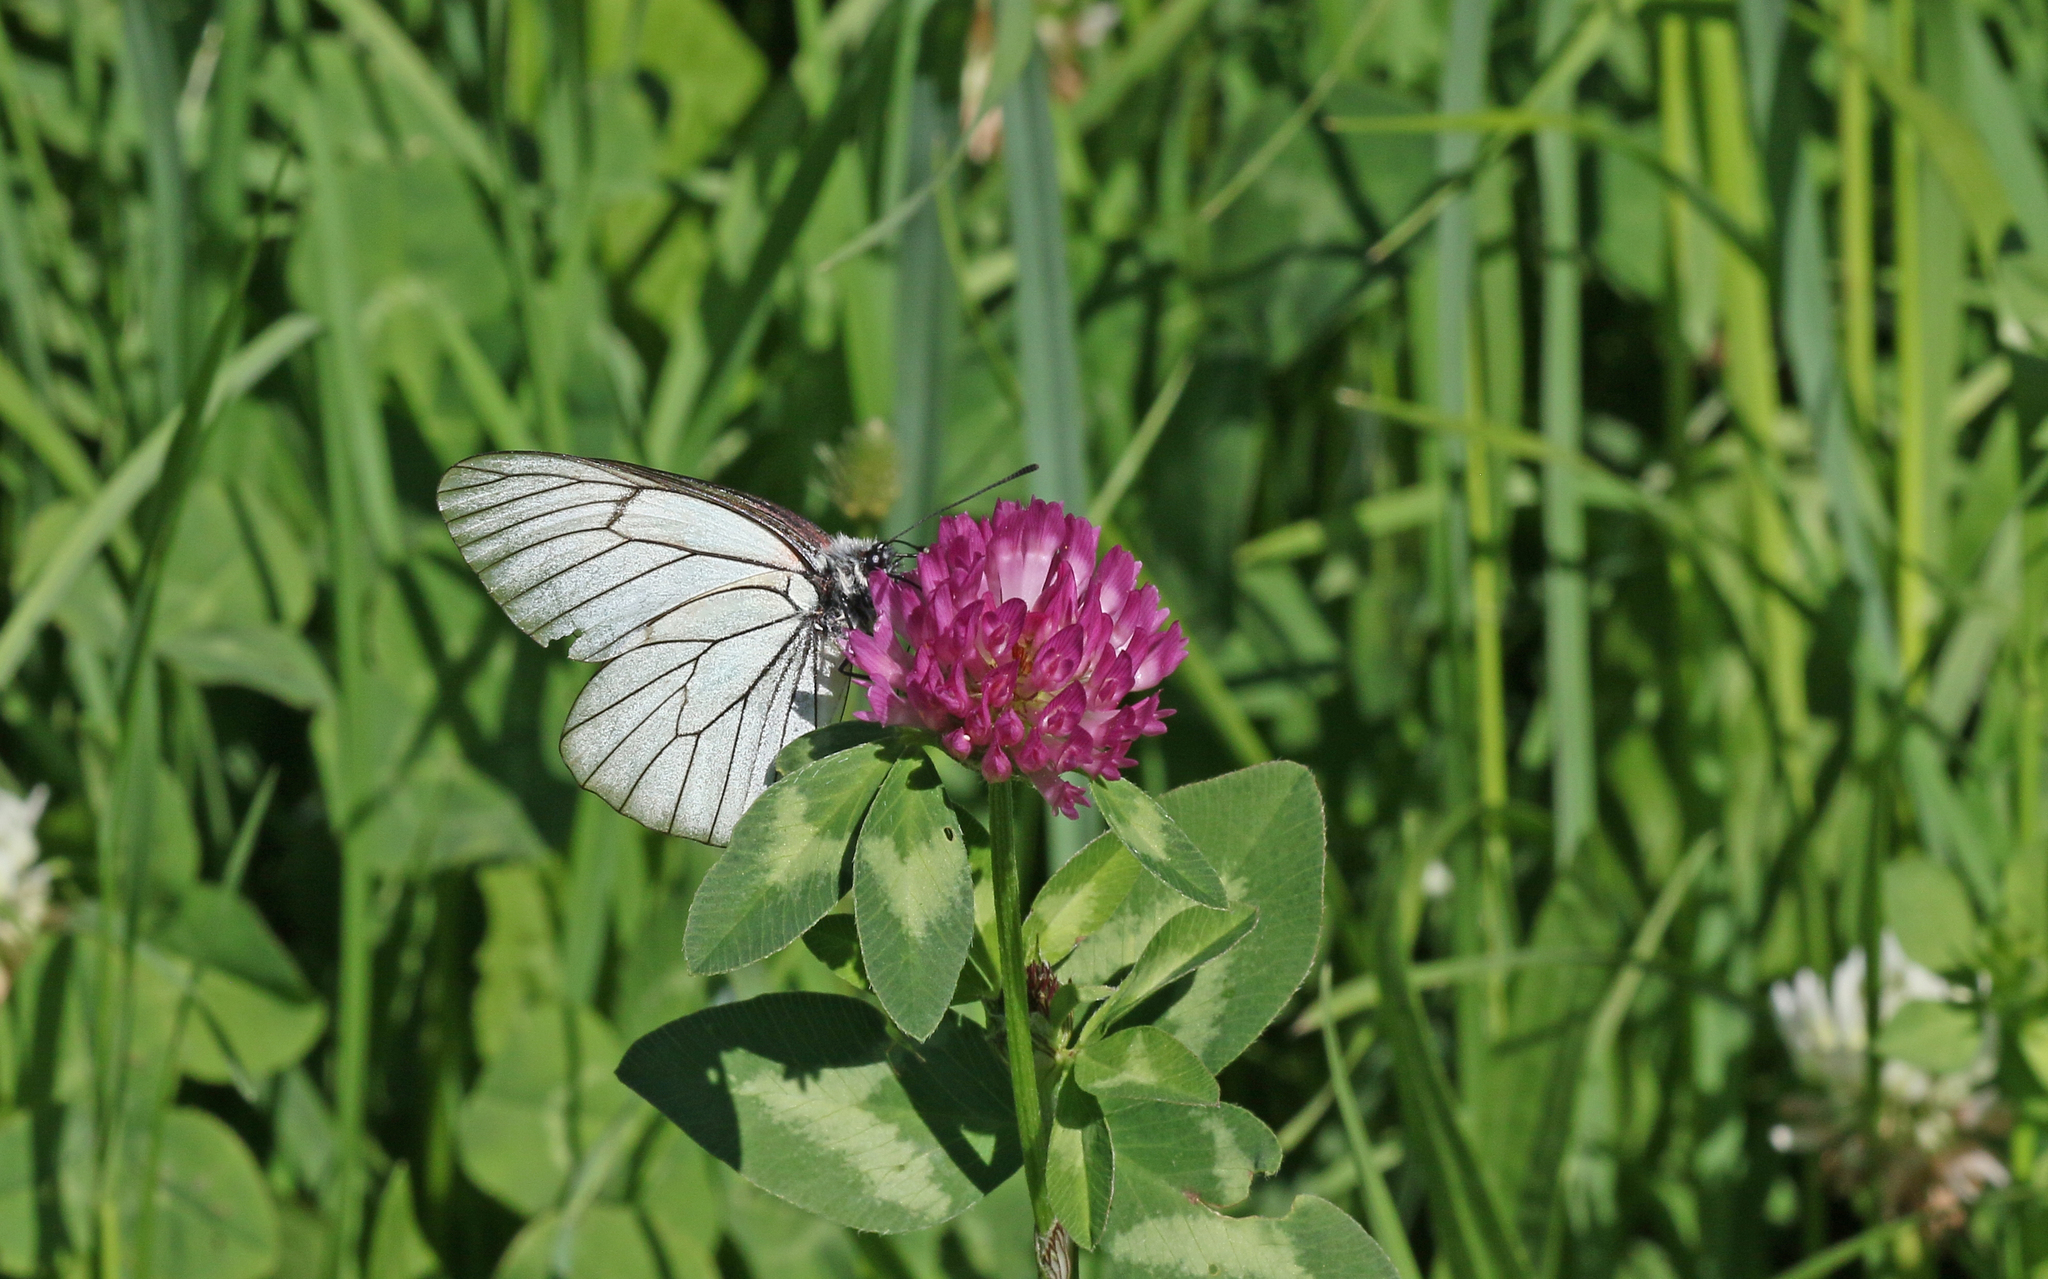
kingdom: Animalia
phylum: Arthropoda
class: Insecta
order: Lepidoptera
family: Pieridae
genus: Aporia
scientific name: Aporia crataegi
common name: Black-veined white
